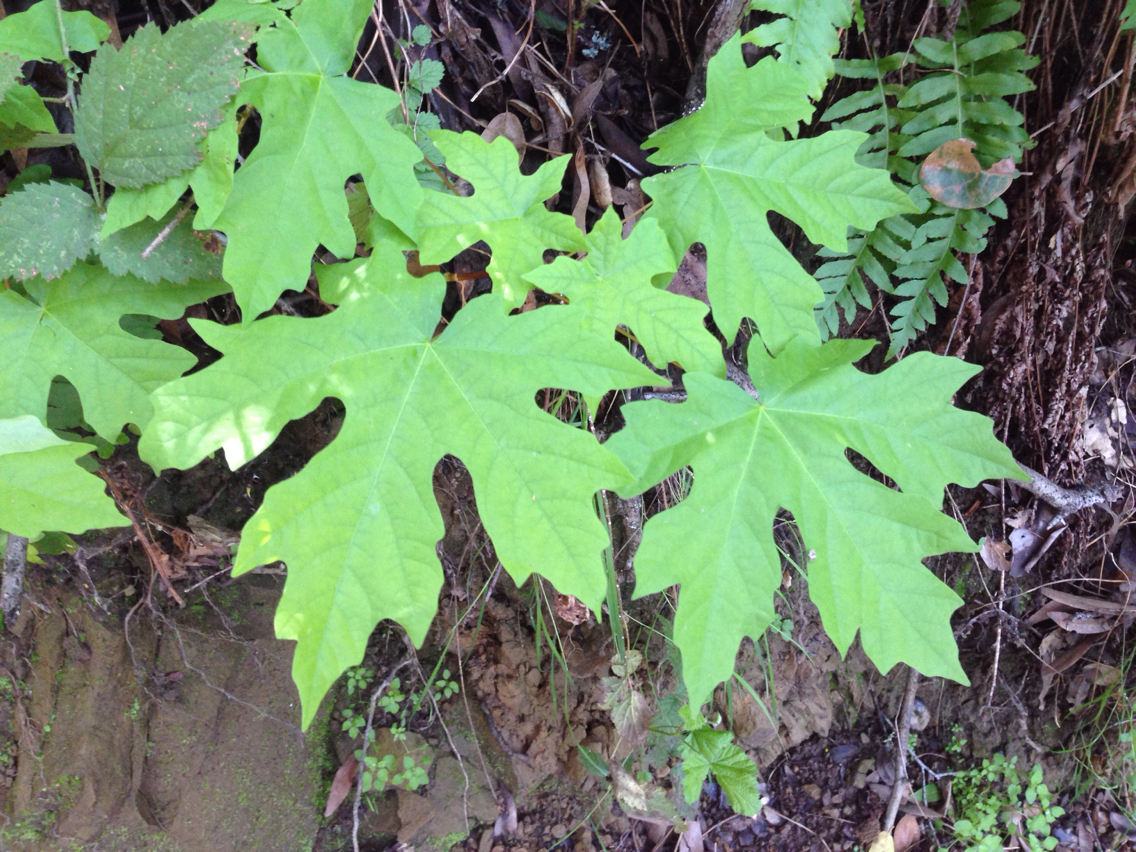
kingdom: Plantae
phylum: Tracheophyta
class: Magnoliopsida
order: Sapindales
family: Sapindaceae
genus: Acer
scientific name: Acer macrophyllum
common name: Oregon maple
